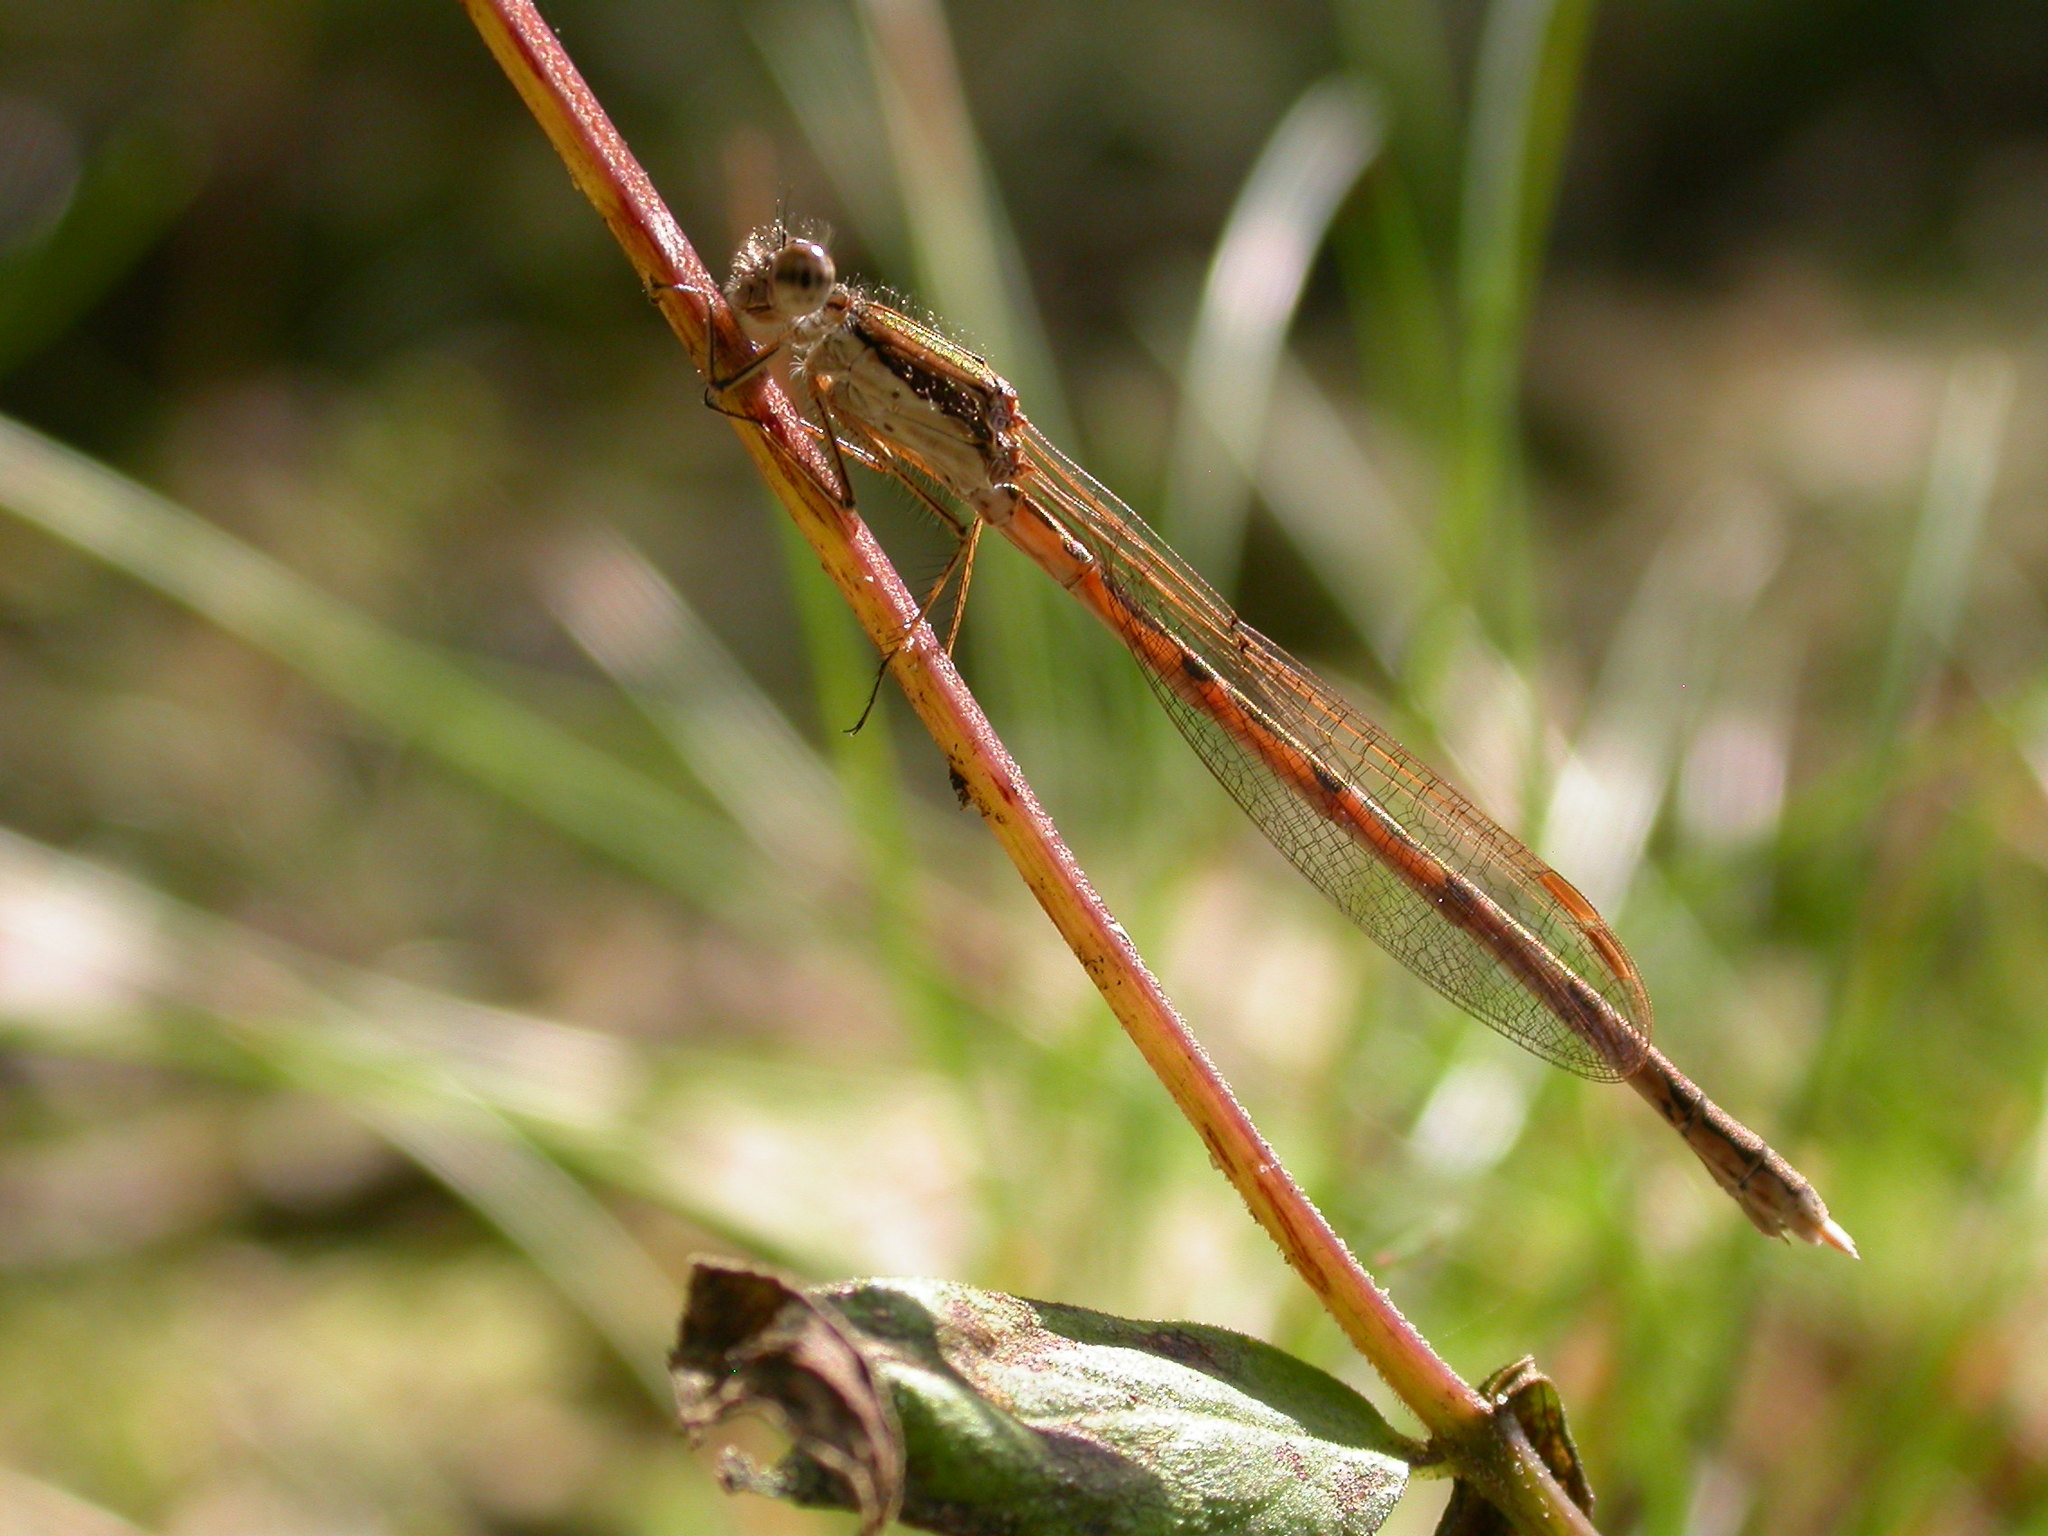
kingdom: Animalia
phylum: Arthropoda
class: Insecta
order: Odonata
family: Lestidae
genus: Sympecma
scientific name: Sympecma fusca
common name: Common winter damsel
